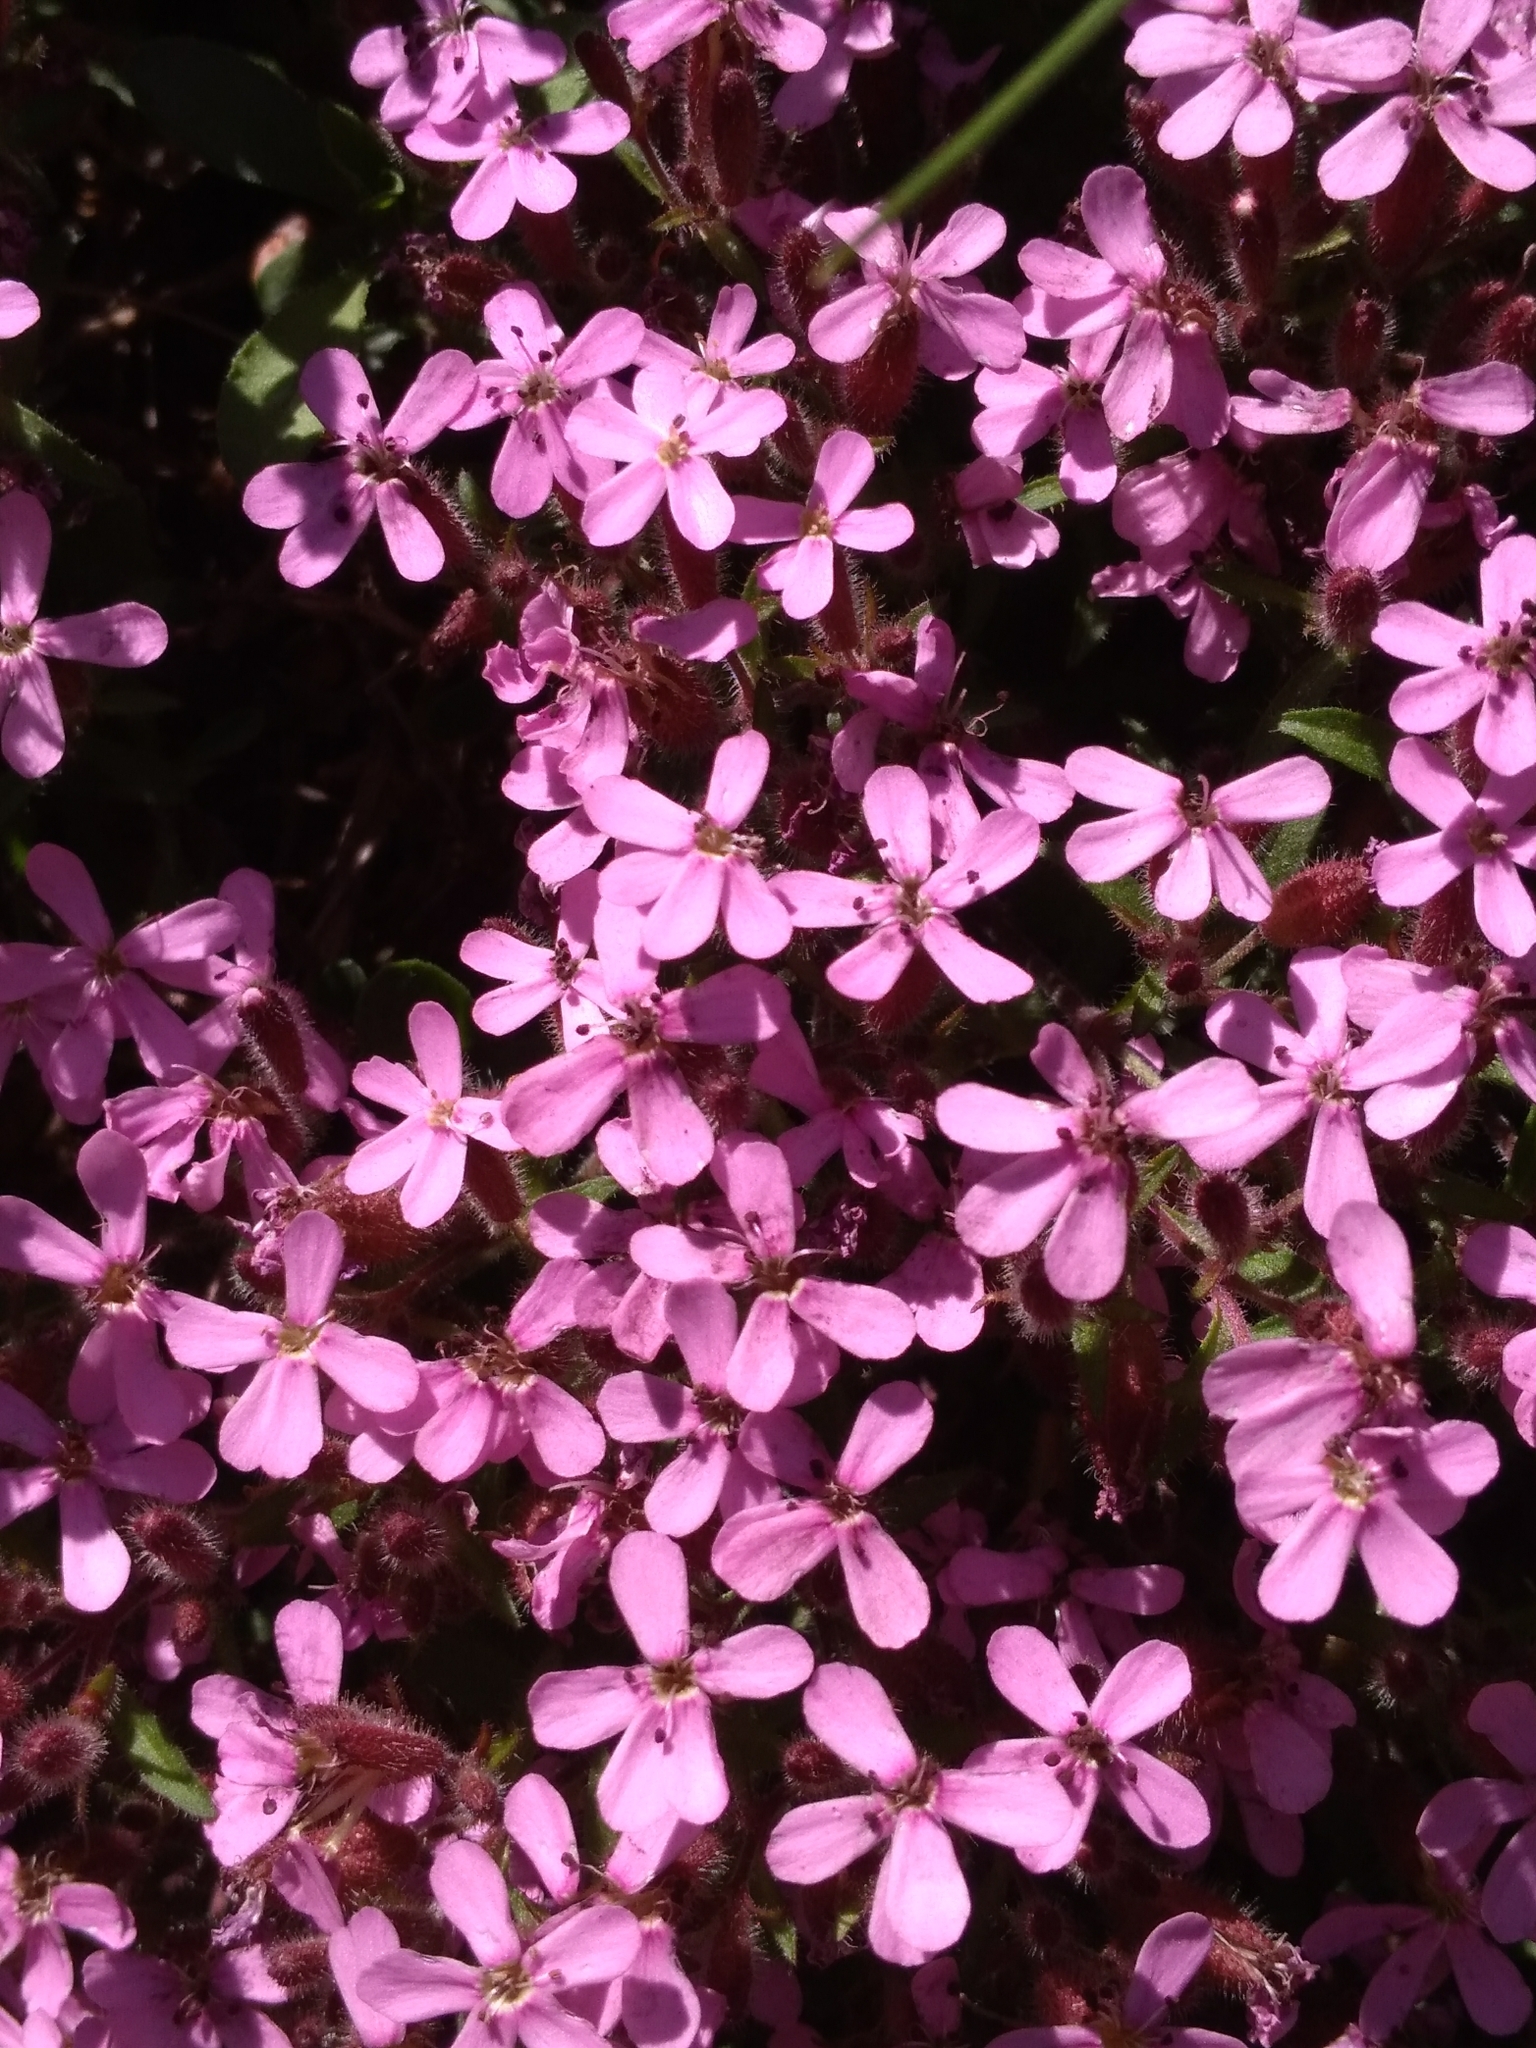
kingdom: Plantae
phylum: Tracheophyta
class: Magnoliopsida
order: Caryophyllales
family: Caryophyllaceae
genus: Saponaria
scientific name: Saponaria ocymoides
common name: Rock soapwort
